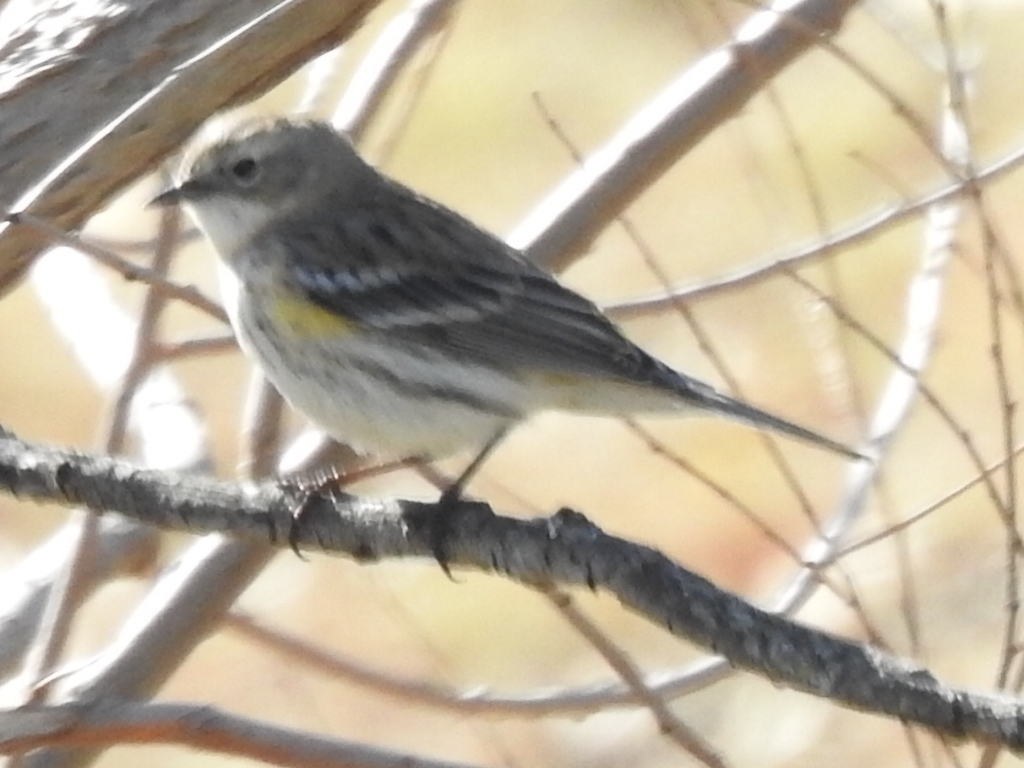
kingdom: Animalia
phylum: Chordata
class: Aves
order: Passeriformes
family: Parulidae
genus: Setophaga
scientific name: Setophaga coronata
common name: Myrtle warbler
